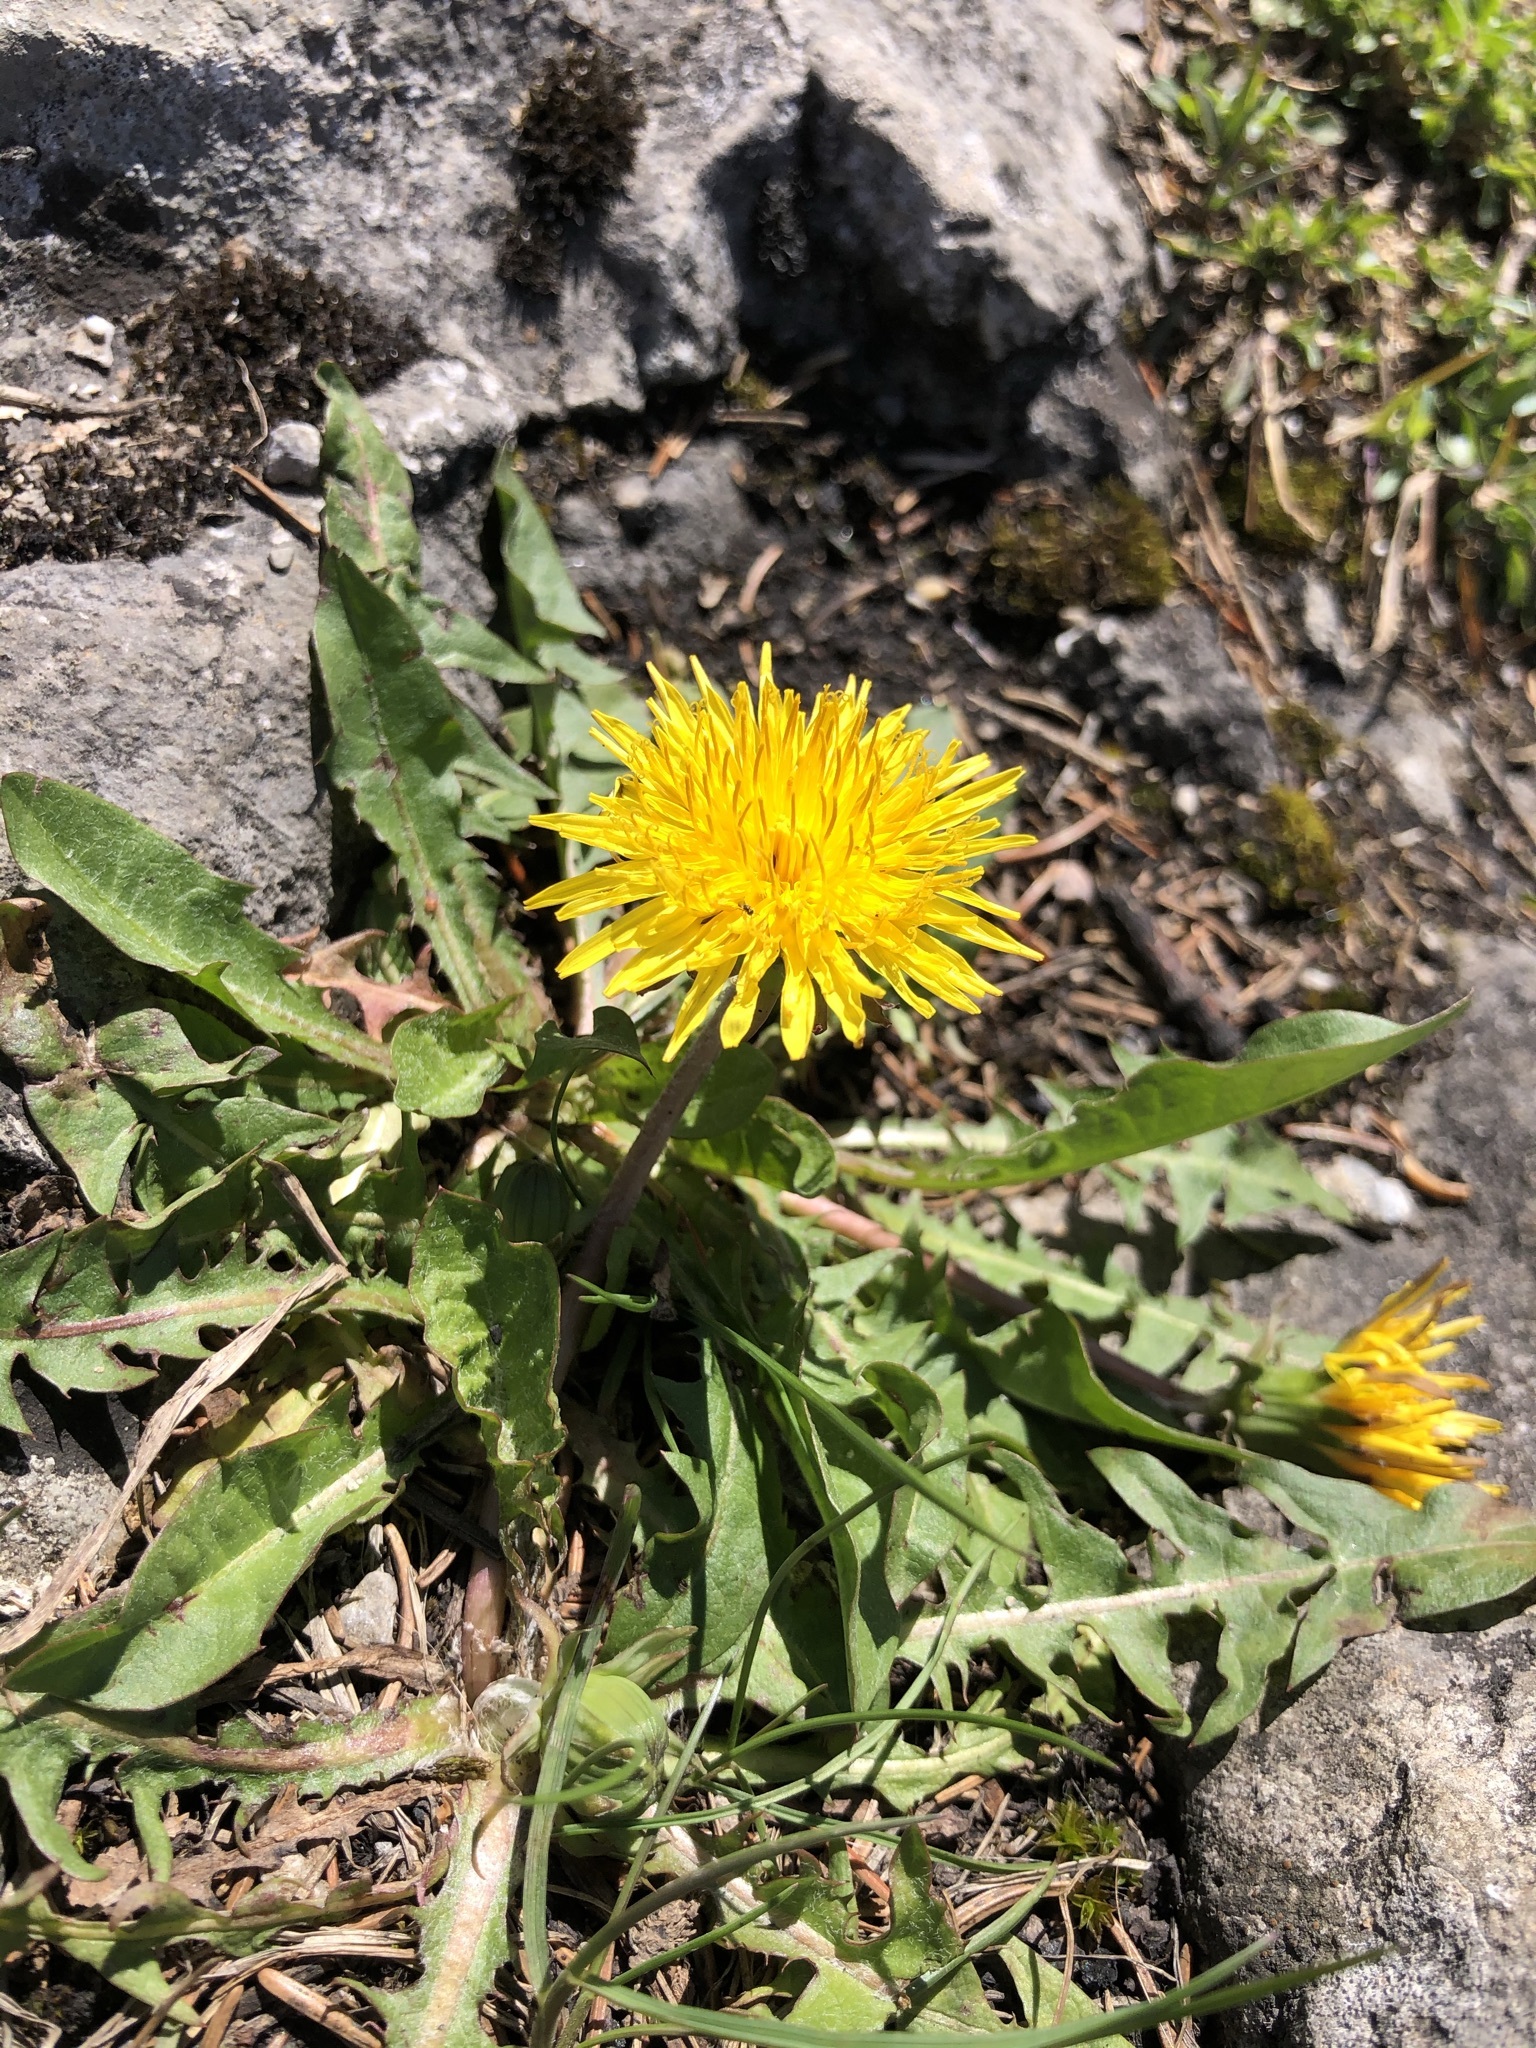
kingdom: Plantae
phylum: Tracheophyta
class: Magnoliopsida
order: Asterales
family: Asteraceae
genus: Taraxacum
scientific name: Taraxacum
